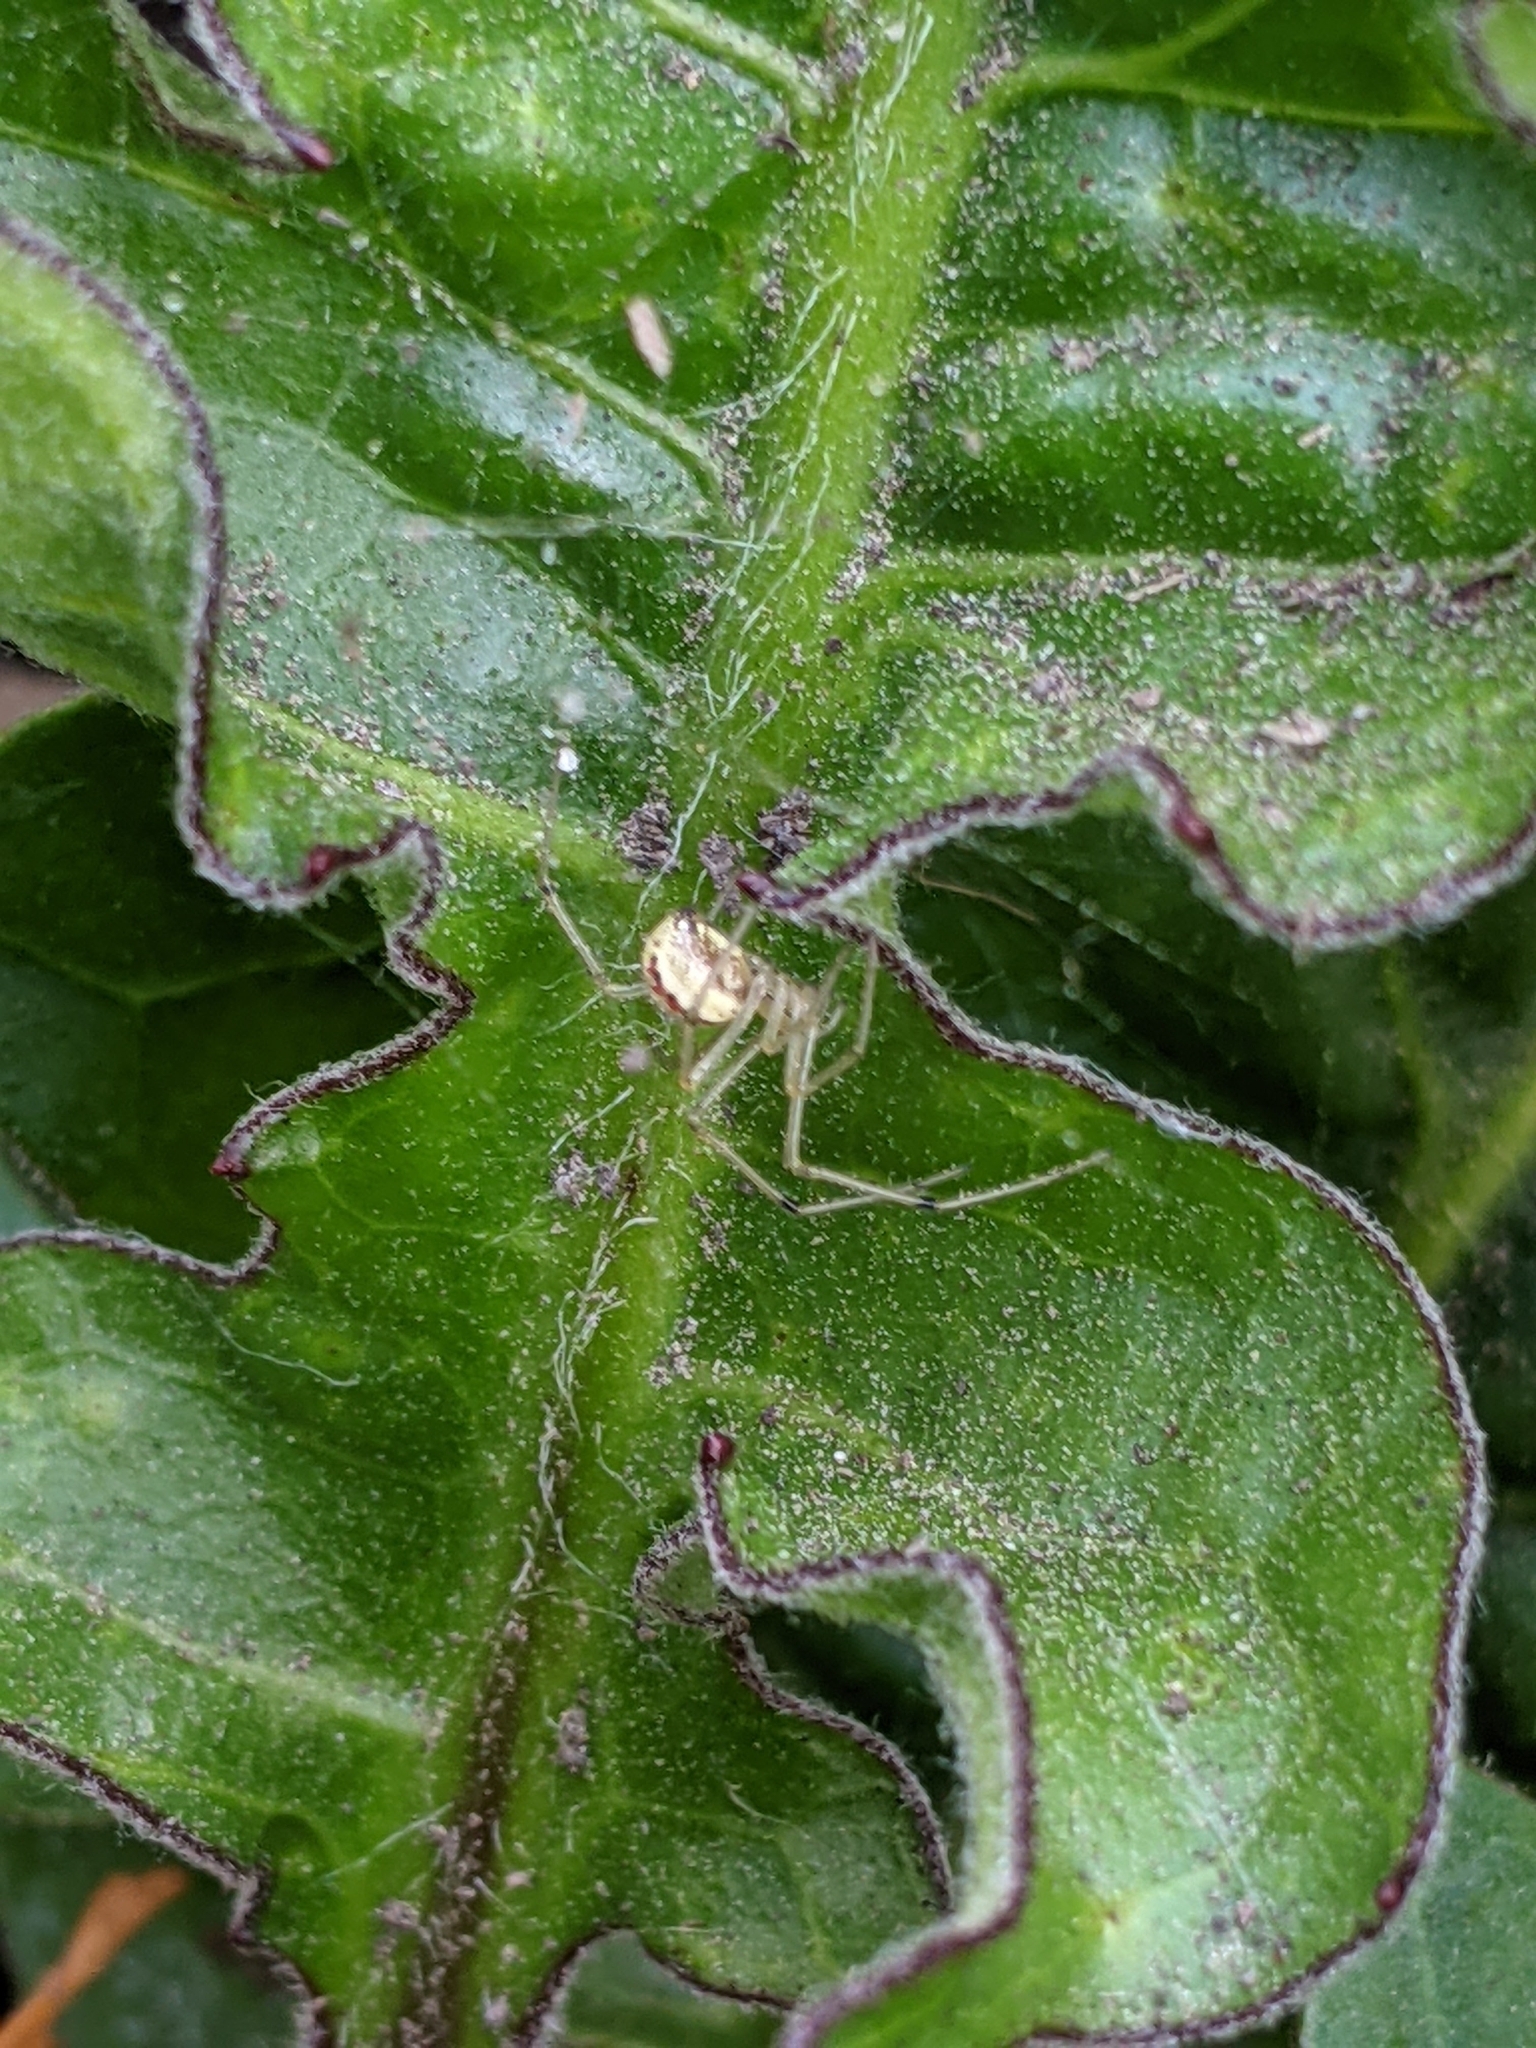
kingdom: Animalia
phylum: Arthropoda
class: Arachnida
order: Araneae
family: Theridiidae
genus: Enoplognatha
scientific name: Enoplognatha ovata
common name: Common candy-striped spider
